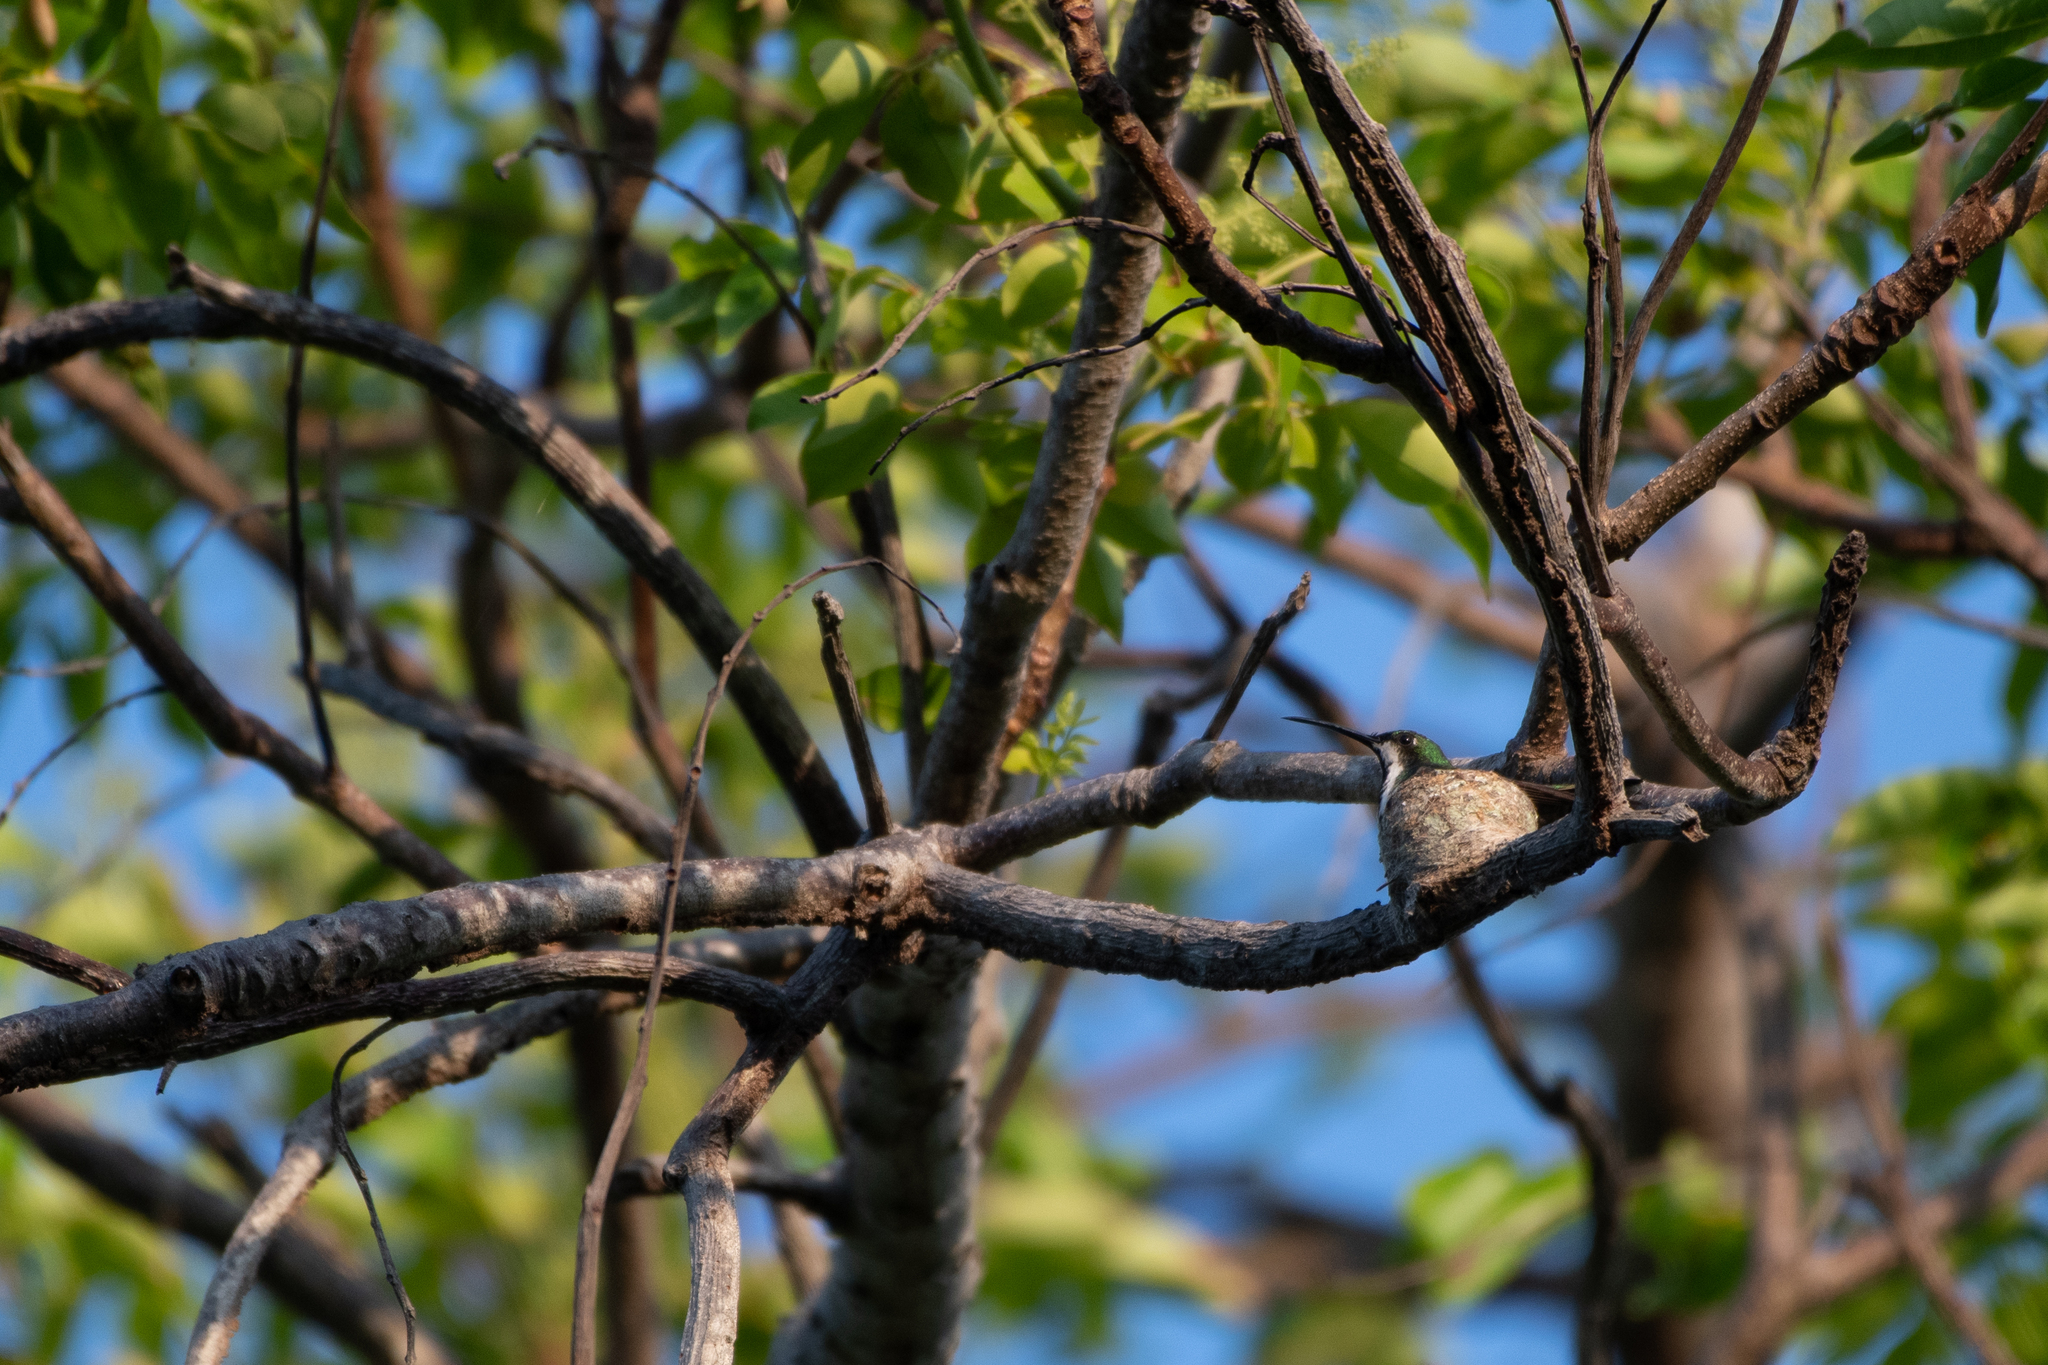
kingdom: Animalia
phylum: Chordata
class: Aves
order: Apodiformes
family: Trochilidae
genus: Anthracothorax
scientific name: Anthracothorax prevostii
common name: Green-breasted mango
